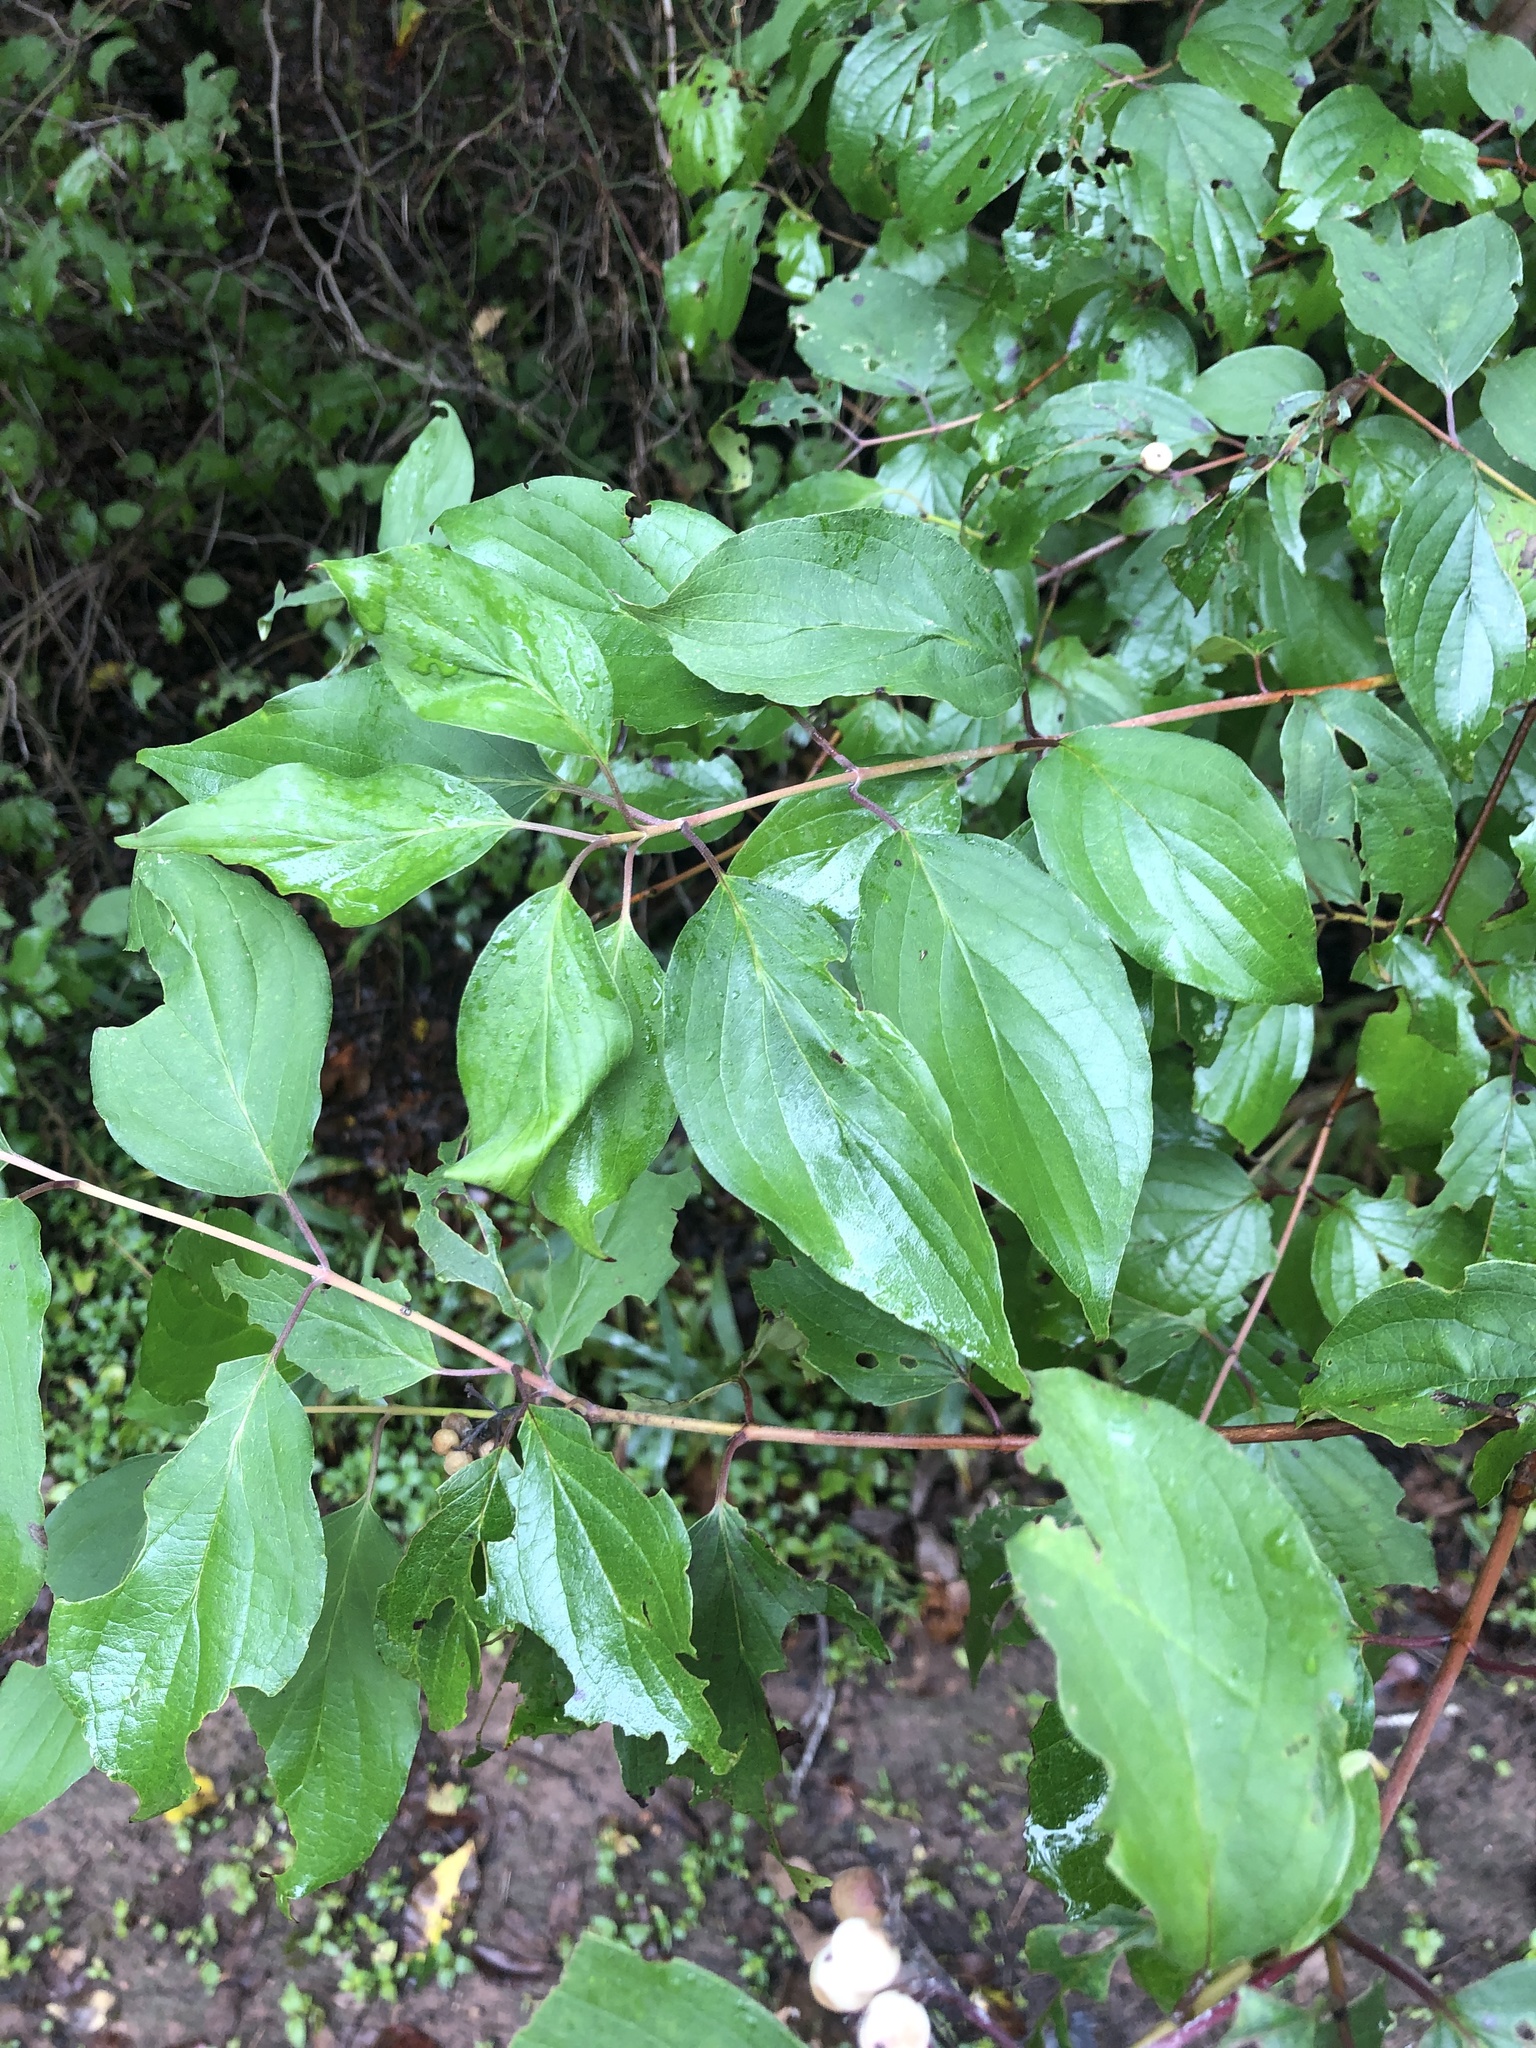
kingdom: Plantae
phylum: Tracheophyta
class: Magnoliopsida
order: Cornales
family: Cornaceae
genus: Cornus
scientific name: Cornus drummondii
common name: Rough-leaf dogwood
